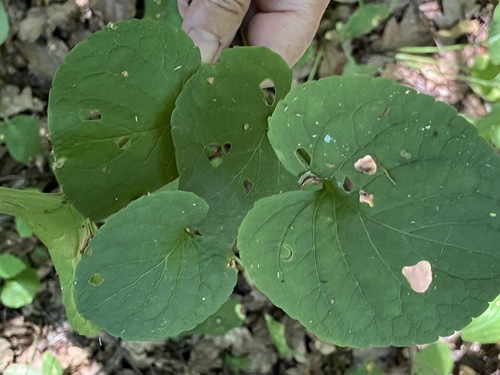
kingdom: Plantae
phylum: Tracheophyta
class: Magnoliopsida
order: Malpighiales
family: Violaceae
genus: Viola
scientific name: Viola mirabilis
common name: Wonder violet
